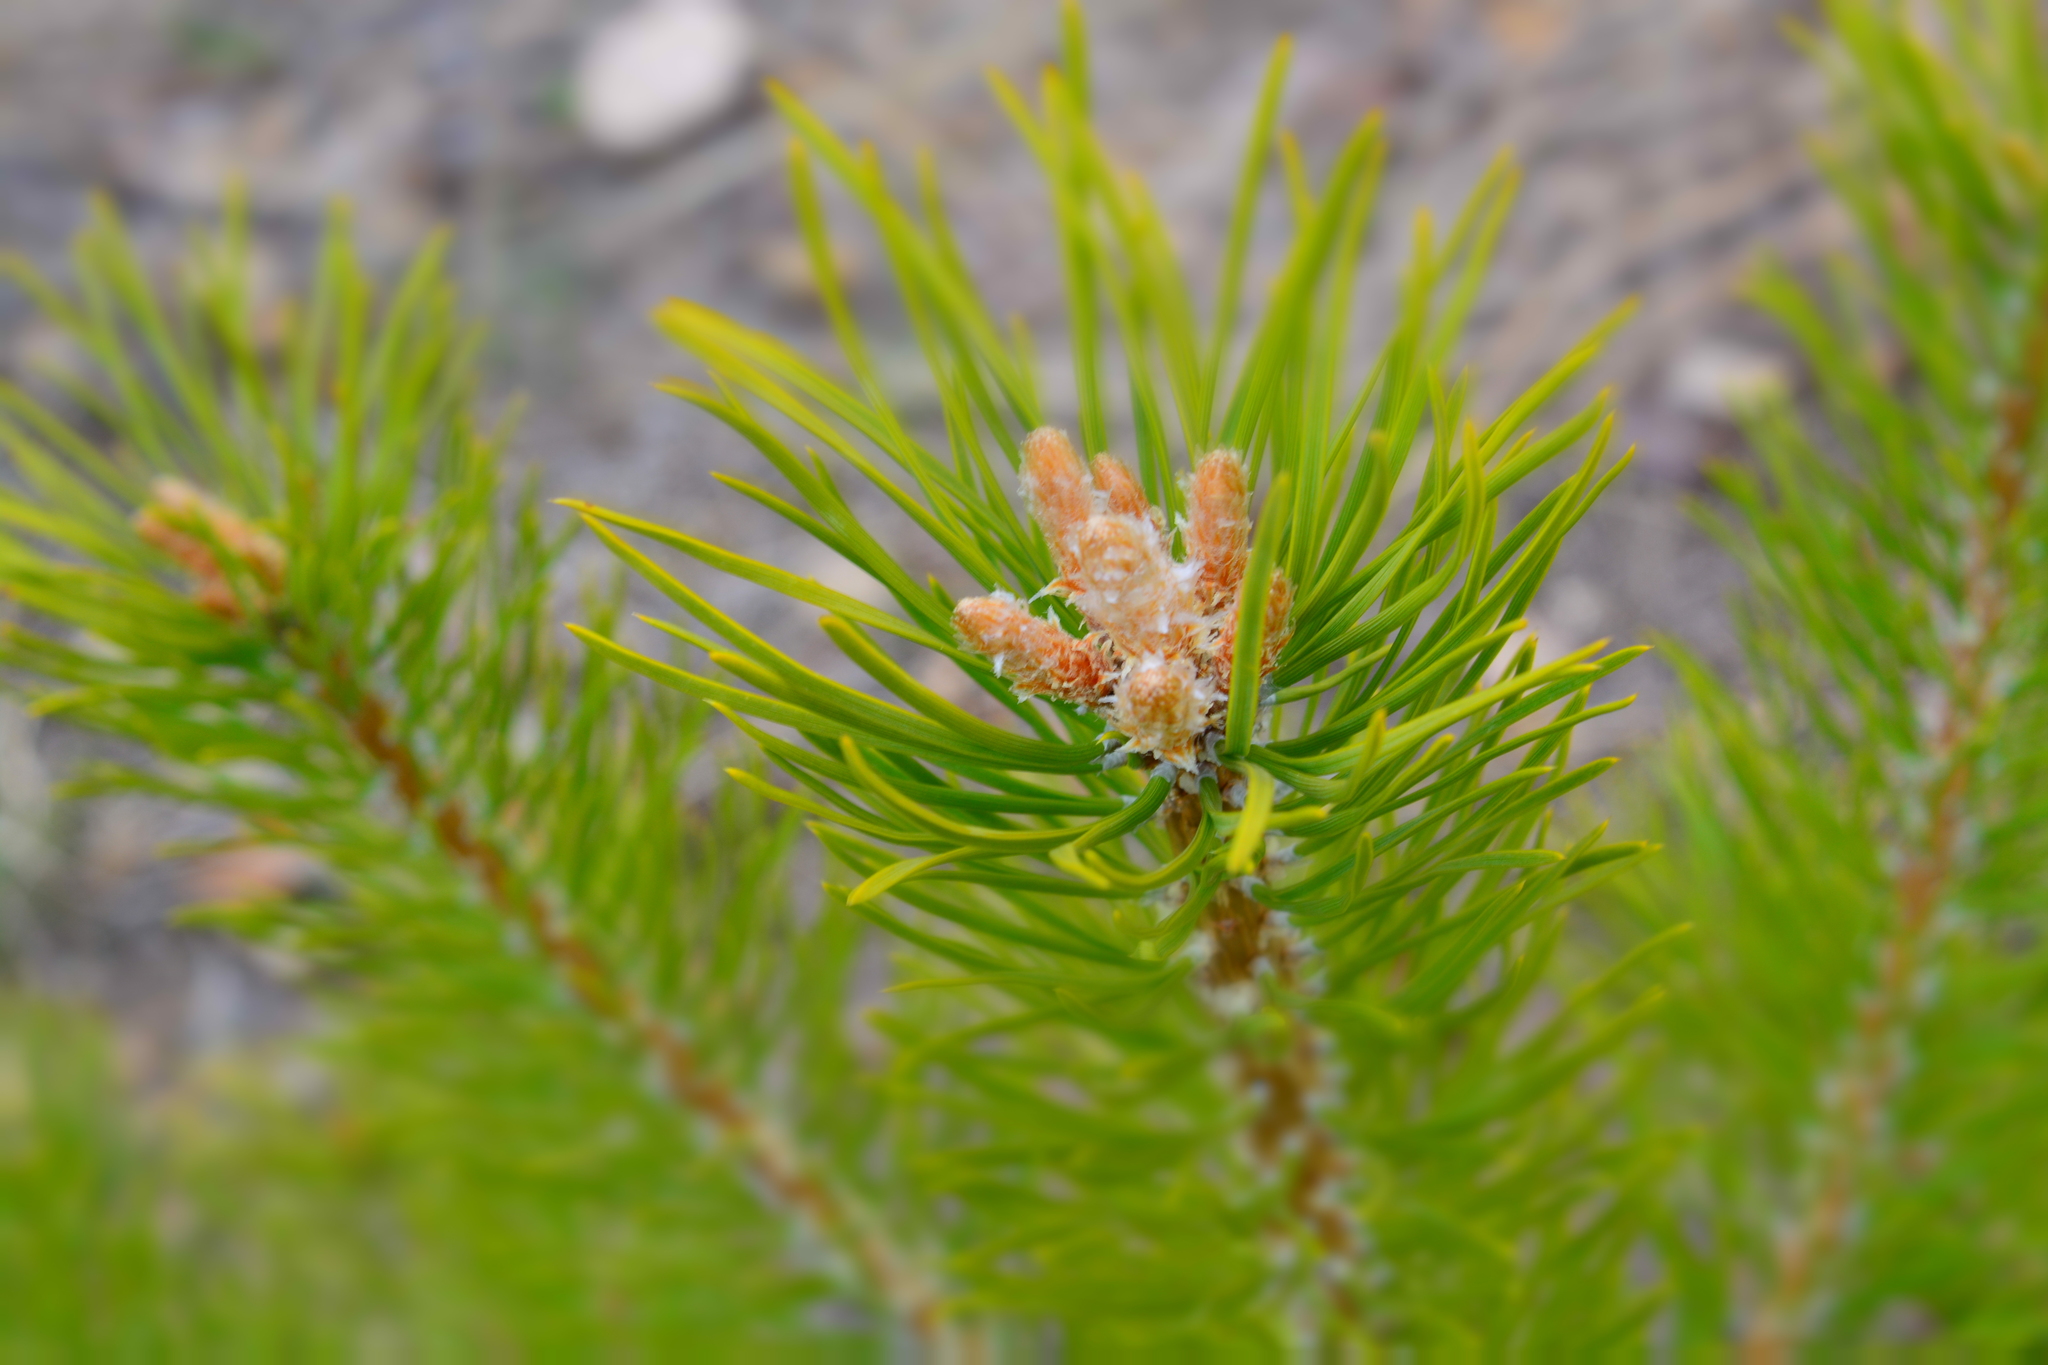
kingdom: Plantae
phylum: Tracheophyta
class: Pinopsida
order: Pinales
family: Pinaceae
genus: Pinus
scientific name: Pinus sylvestris
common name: Scots pine
